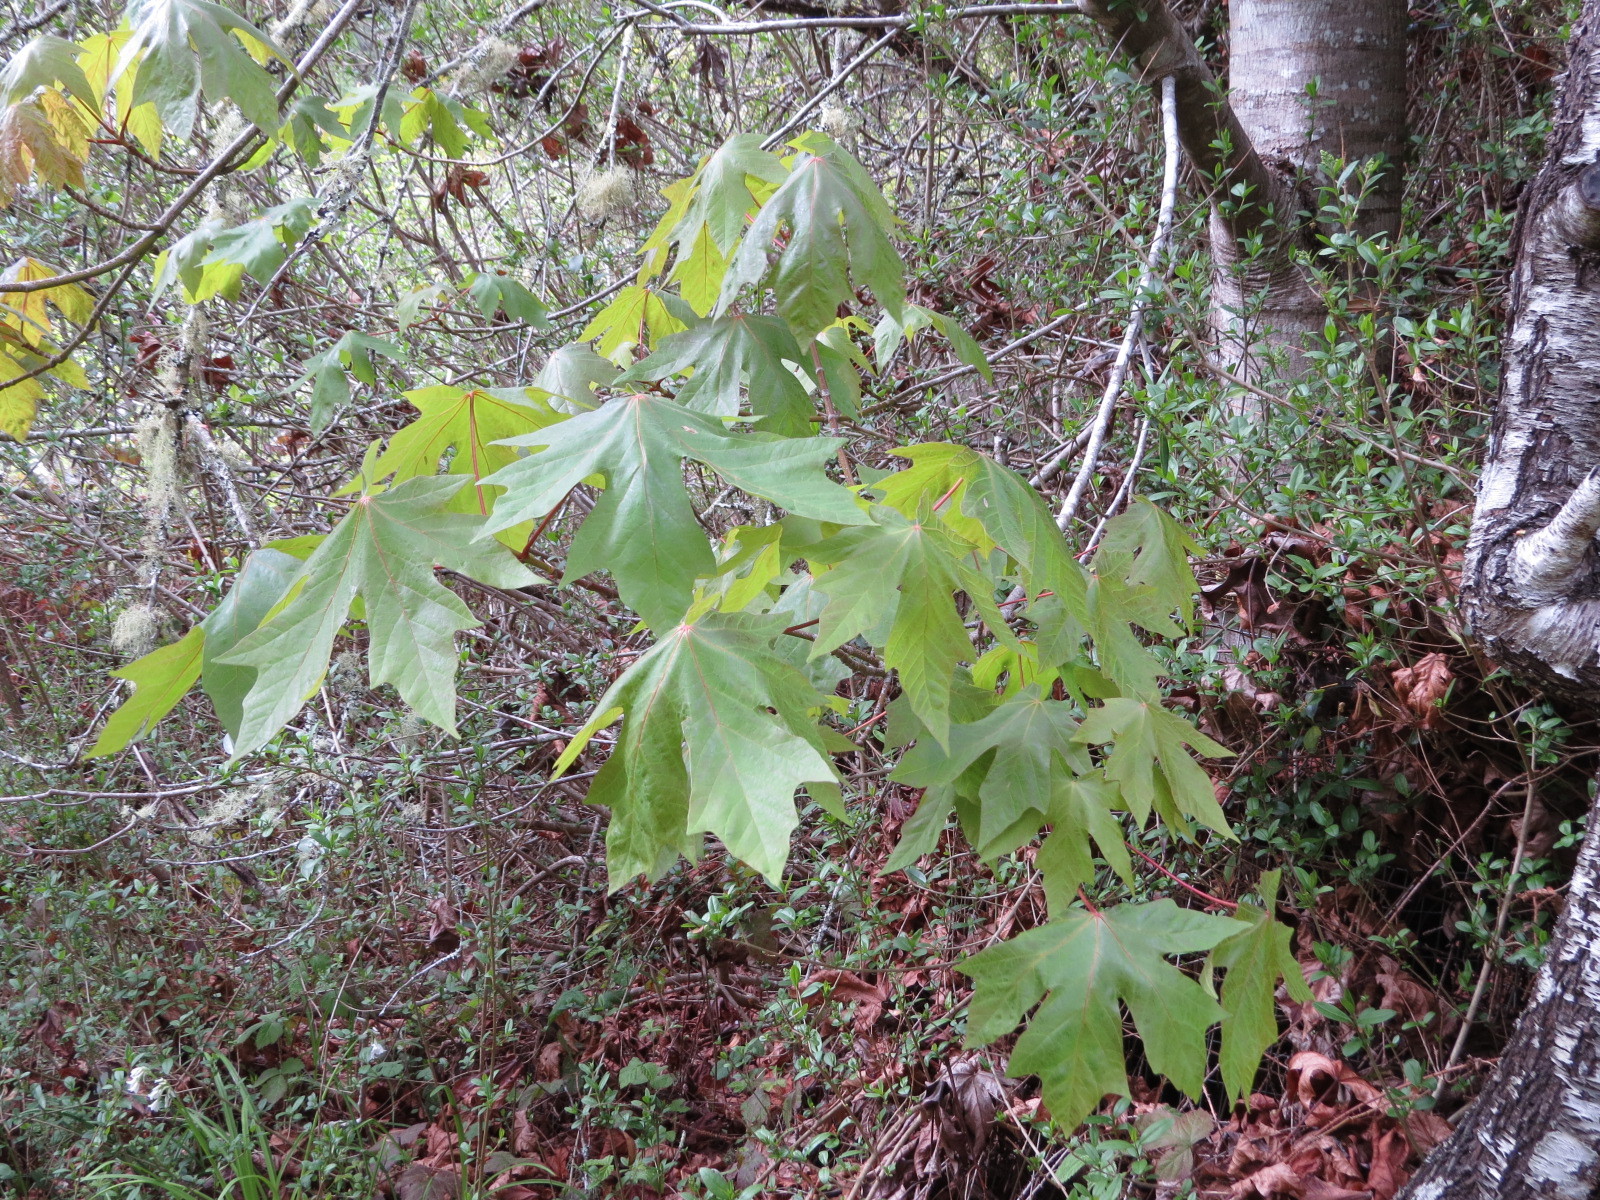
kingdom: Plantae
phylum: Tracheophyta
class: Magnoliopsida
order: Sapindales
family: Sapindaceae
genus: Acer
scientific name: Acer macrophyllum
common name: Oregon maple
